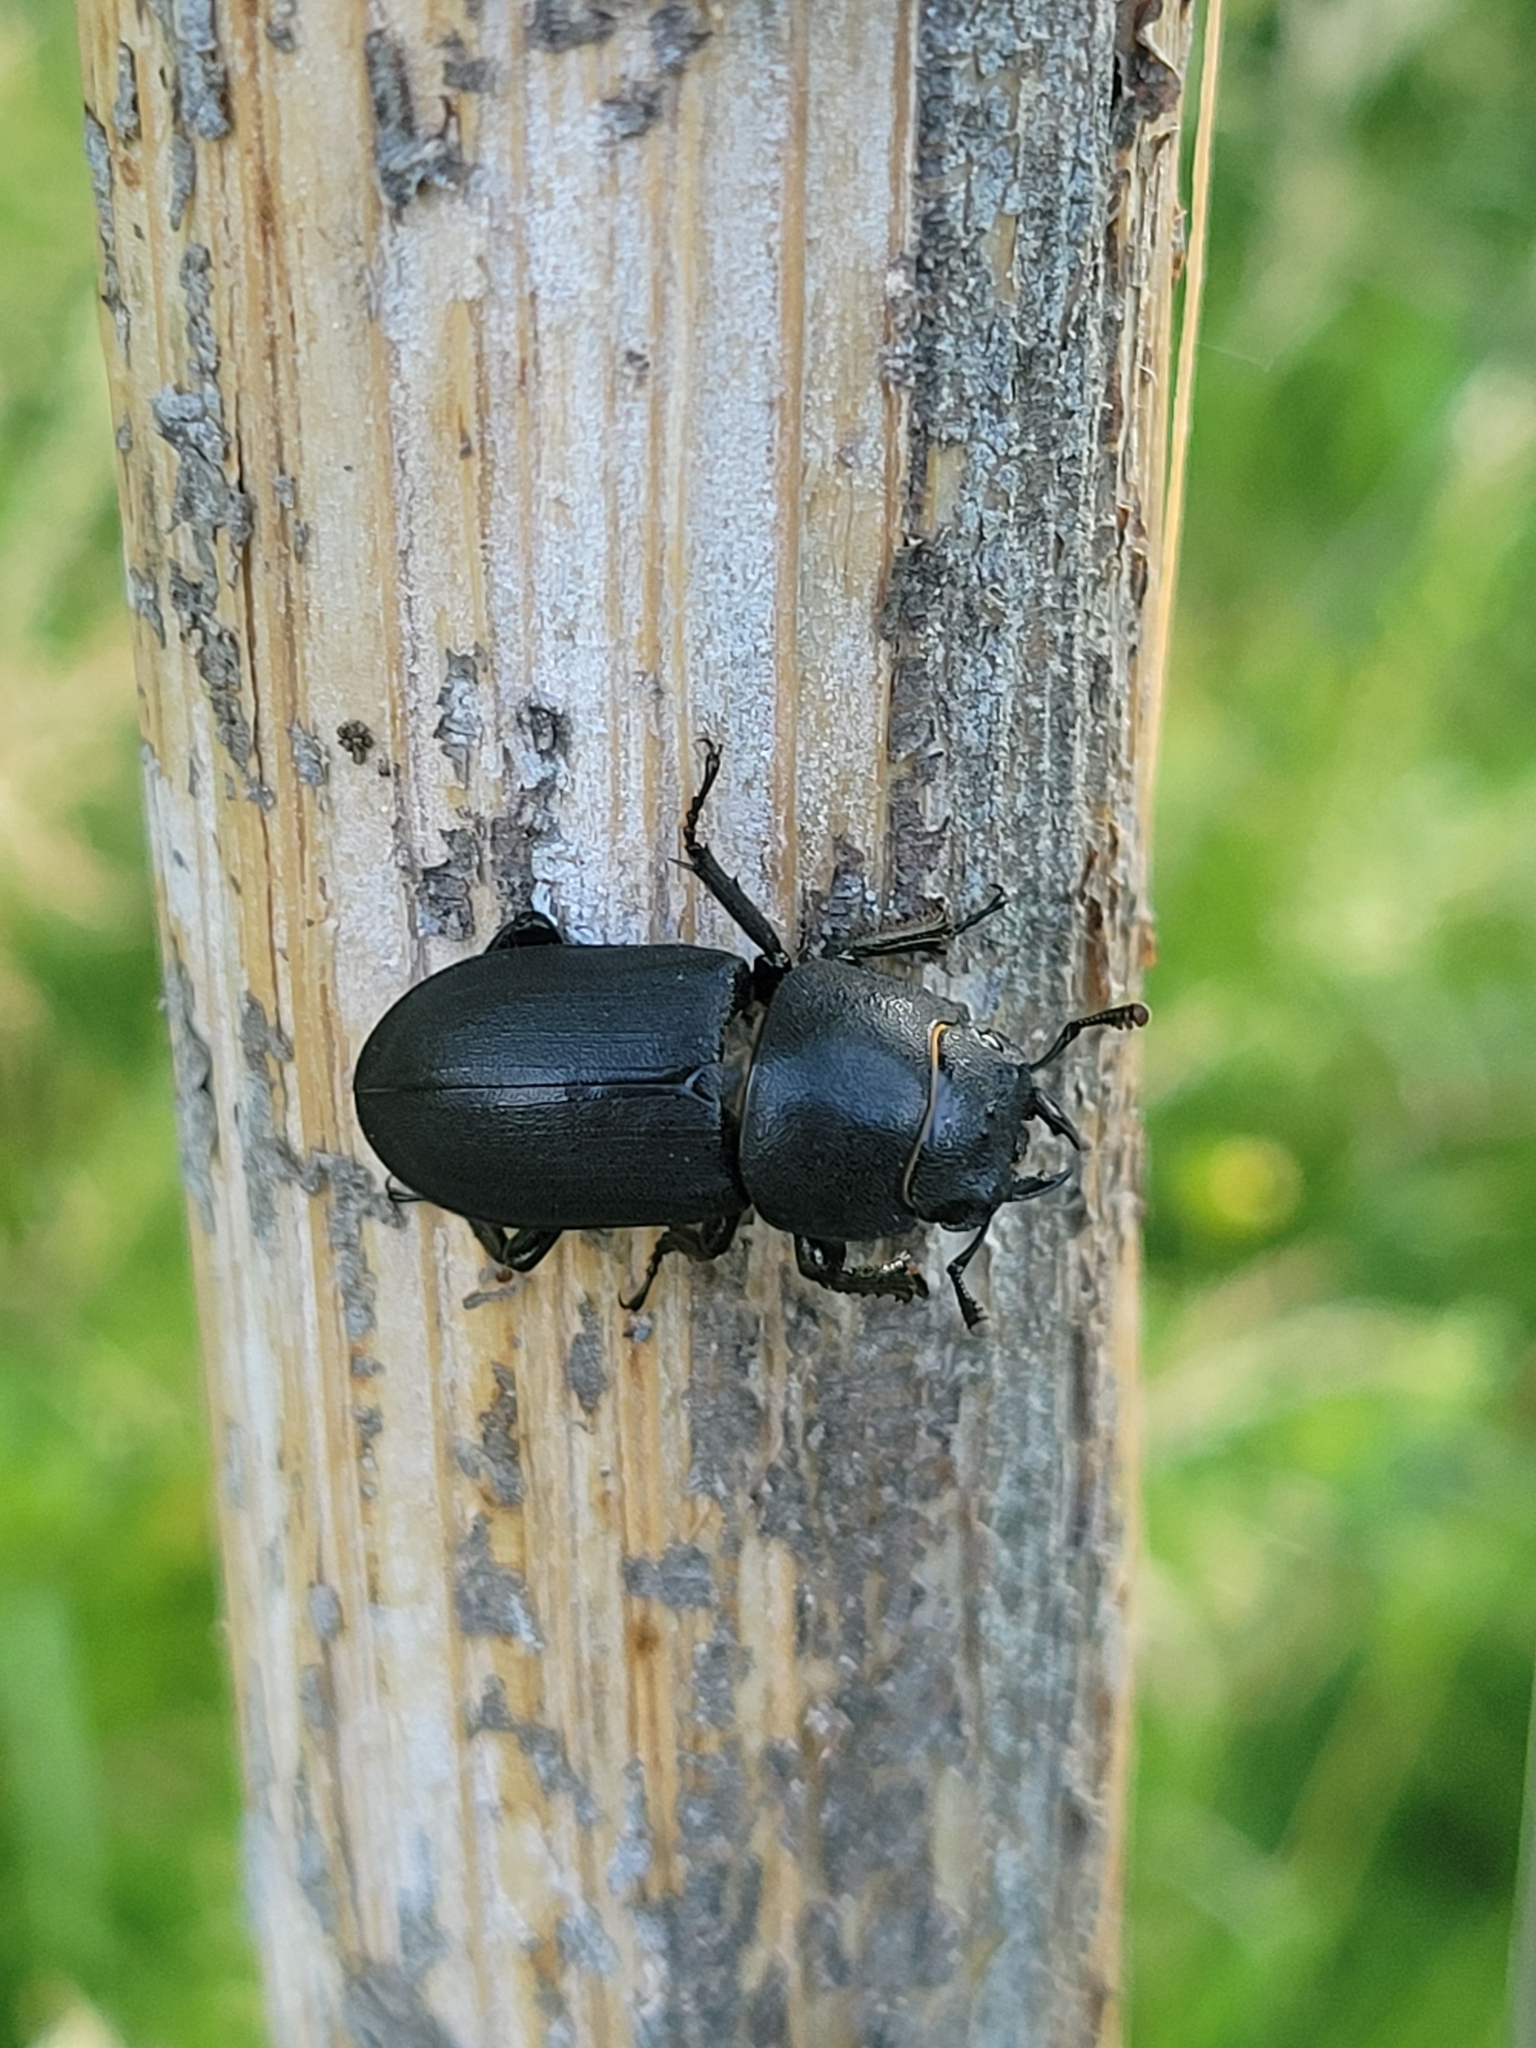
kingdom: Animalia
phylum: Arthropoda
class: Insecta
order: Coleoptera
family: Lucanidae
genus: Dorcus
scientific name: Dorcus parallelipipedus
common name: Lesser stag beetle
